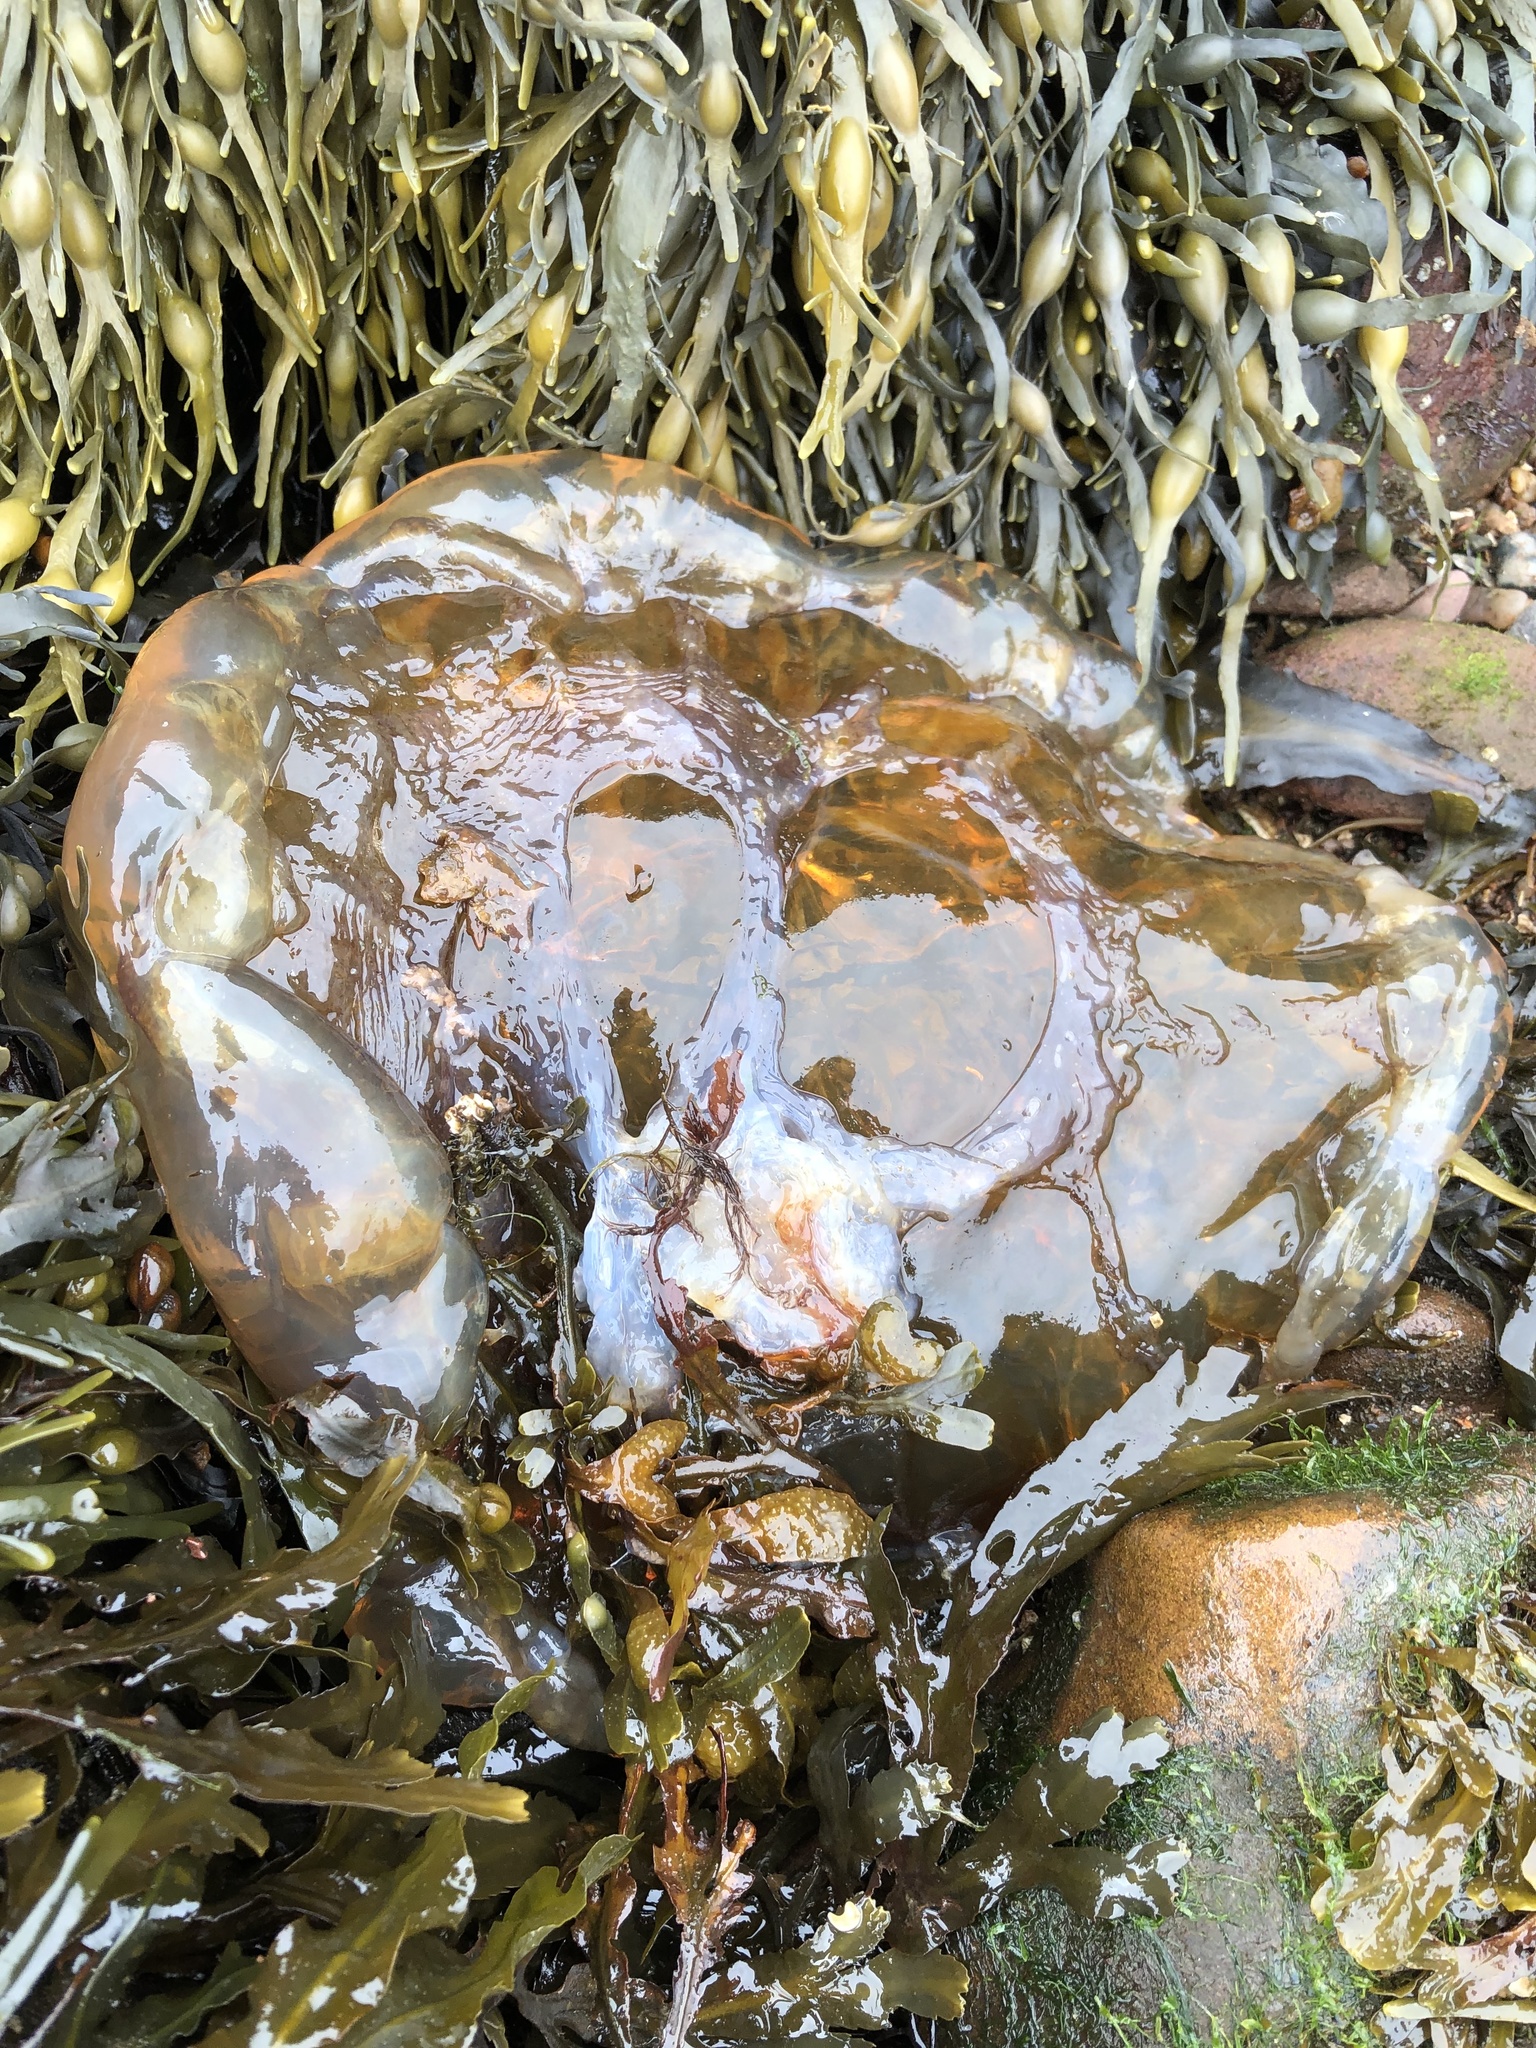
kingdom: Animalia
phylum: Cnidaria
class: Scyphozoa
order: Semaeostomeae
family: Cyaneidae
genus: Cyanea
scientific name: Cyanea capillata
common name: Lion's mane jellyfish
